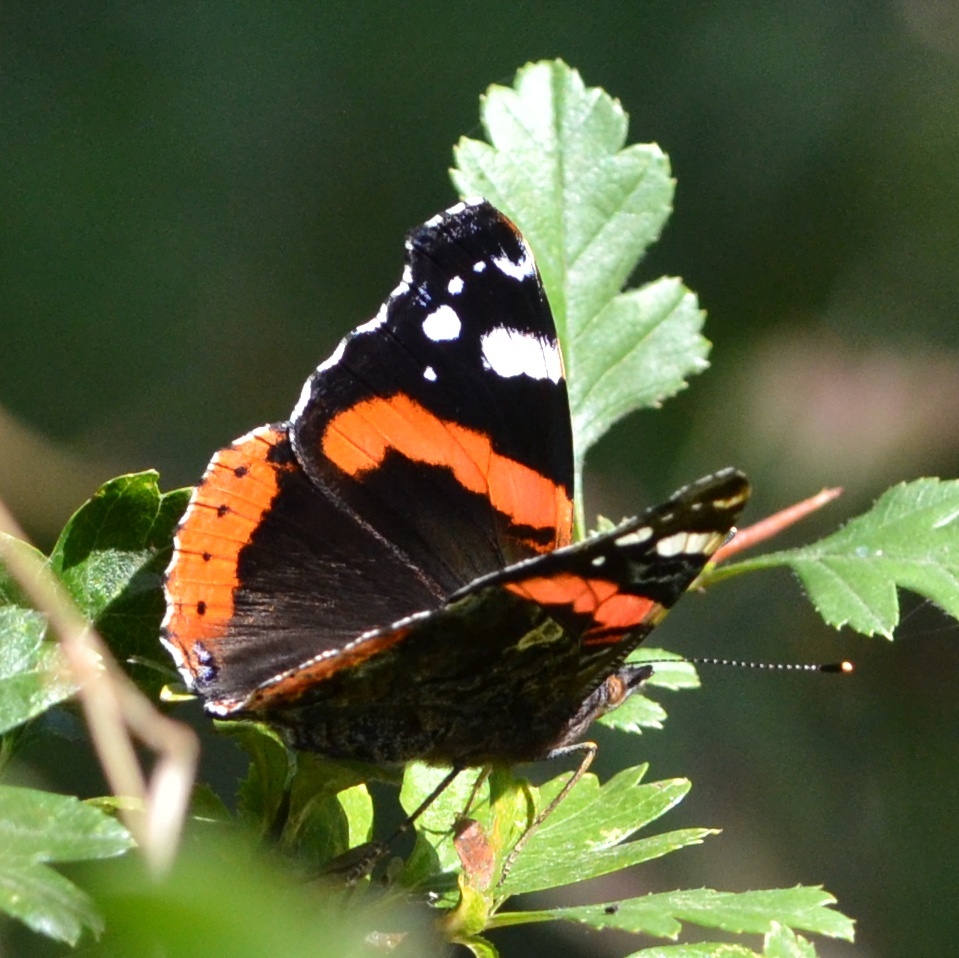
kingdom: Animalia
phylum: Arthropoda
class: Insecta
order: Lepidoptera
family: Nymphalidae
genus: Vanessa
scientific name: Vanessa atalanta
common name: Red admiral
